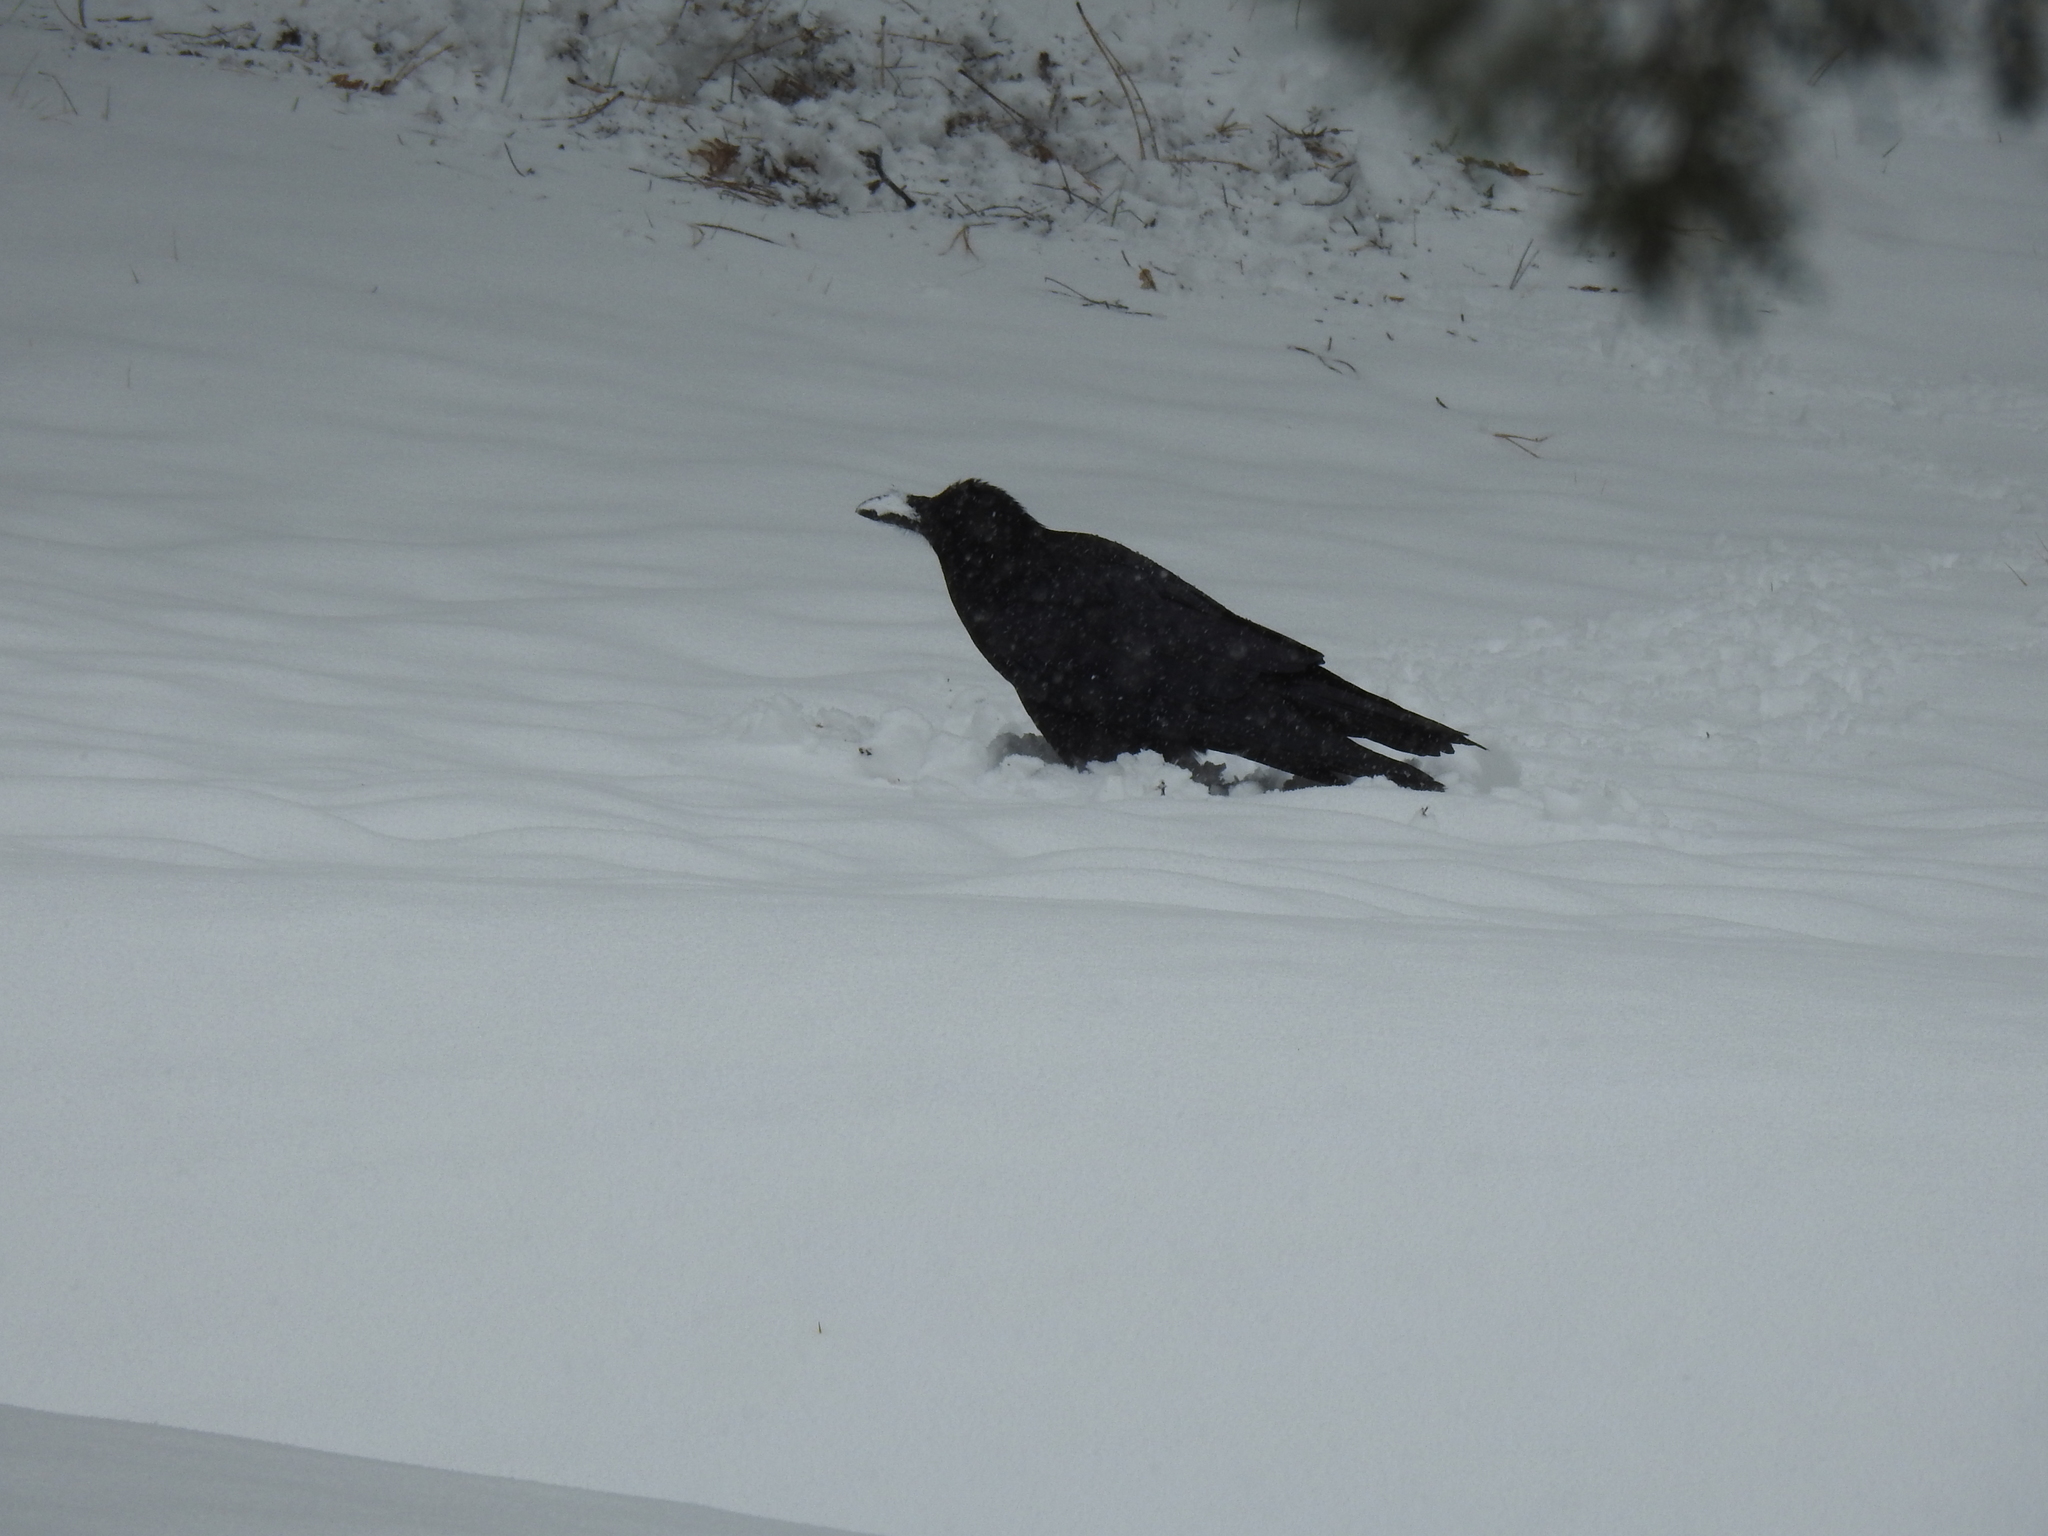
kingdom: Animalia
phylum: Chordata
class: Aves
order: Passeriformes
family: Corvidae
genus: Corvus
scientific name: Corvus corax
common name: Common raven
